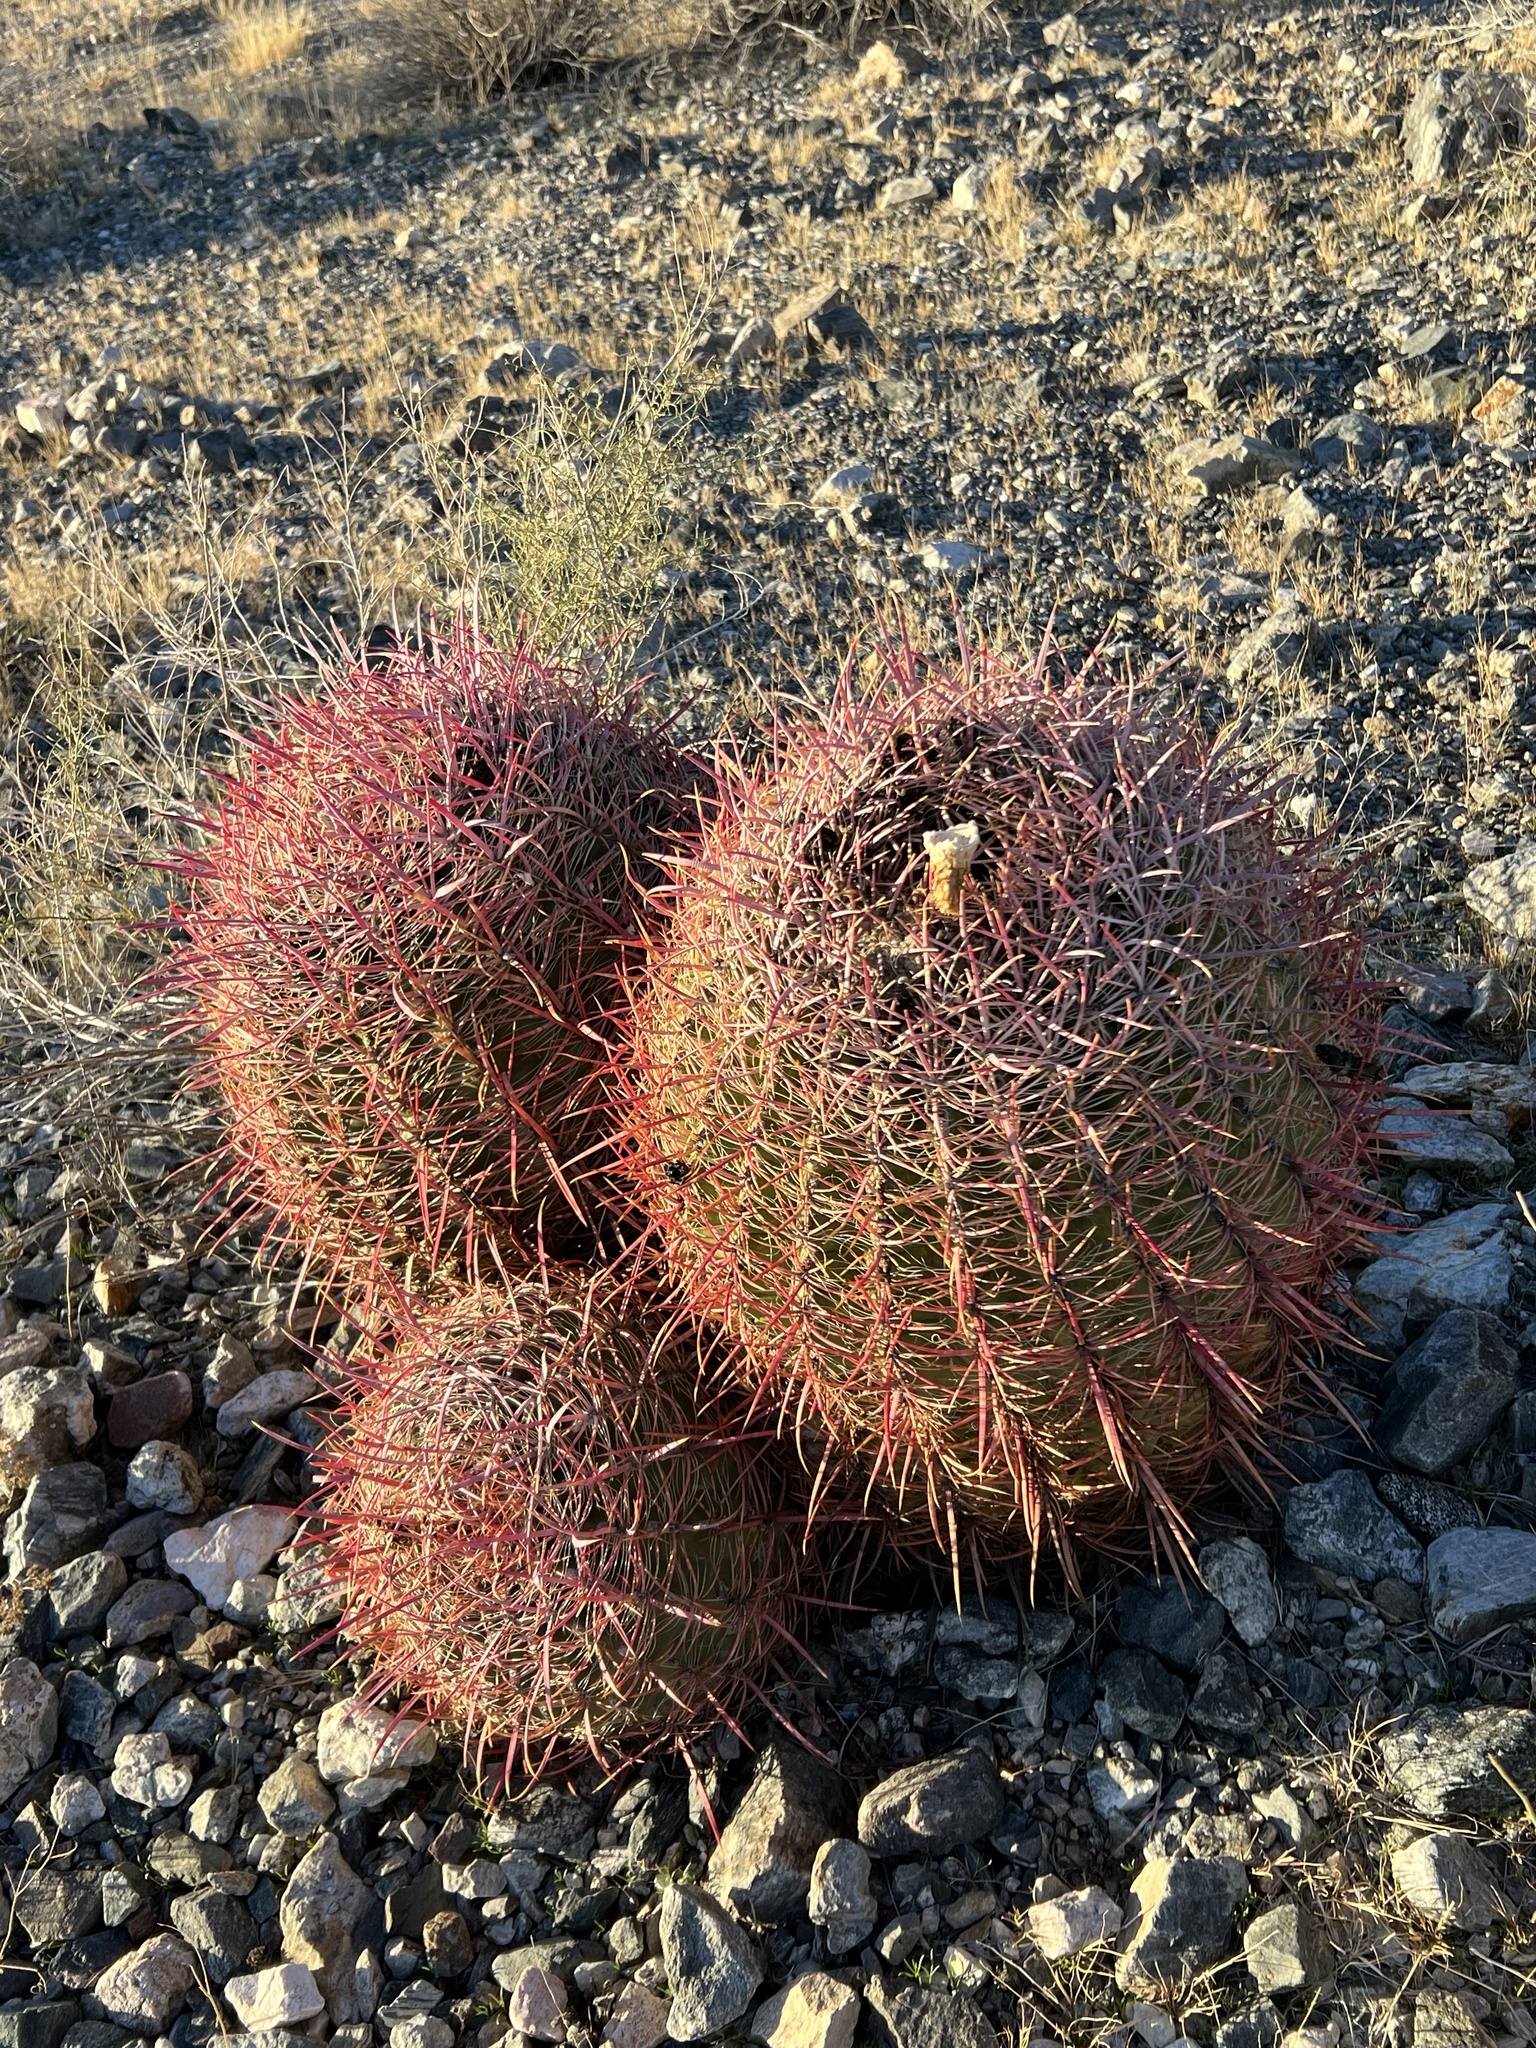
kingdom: Plantae
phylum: Tracheophyta
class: Magnoliopsida
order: Caryophyllales
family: Cactaceae
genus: Ferocactus
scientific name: Ferocactus cylindraceus
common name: California barrel cactus
